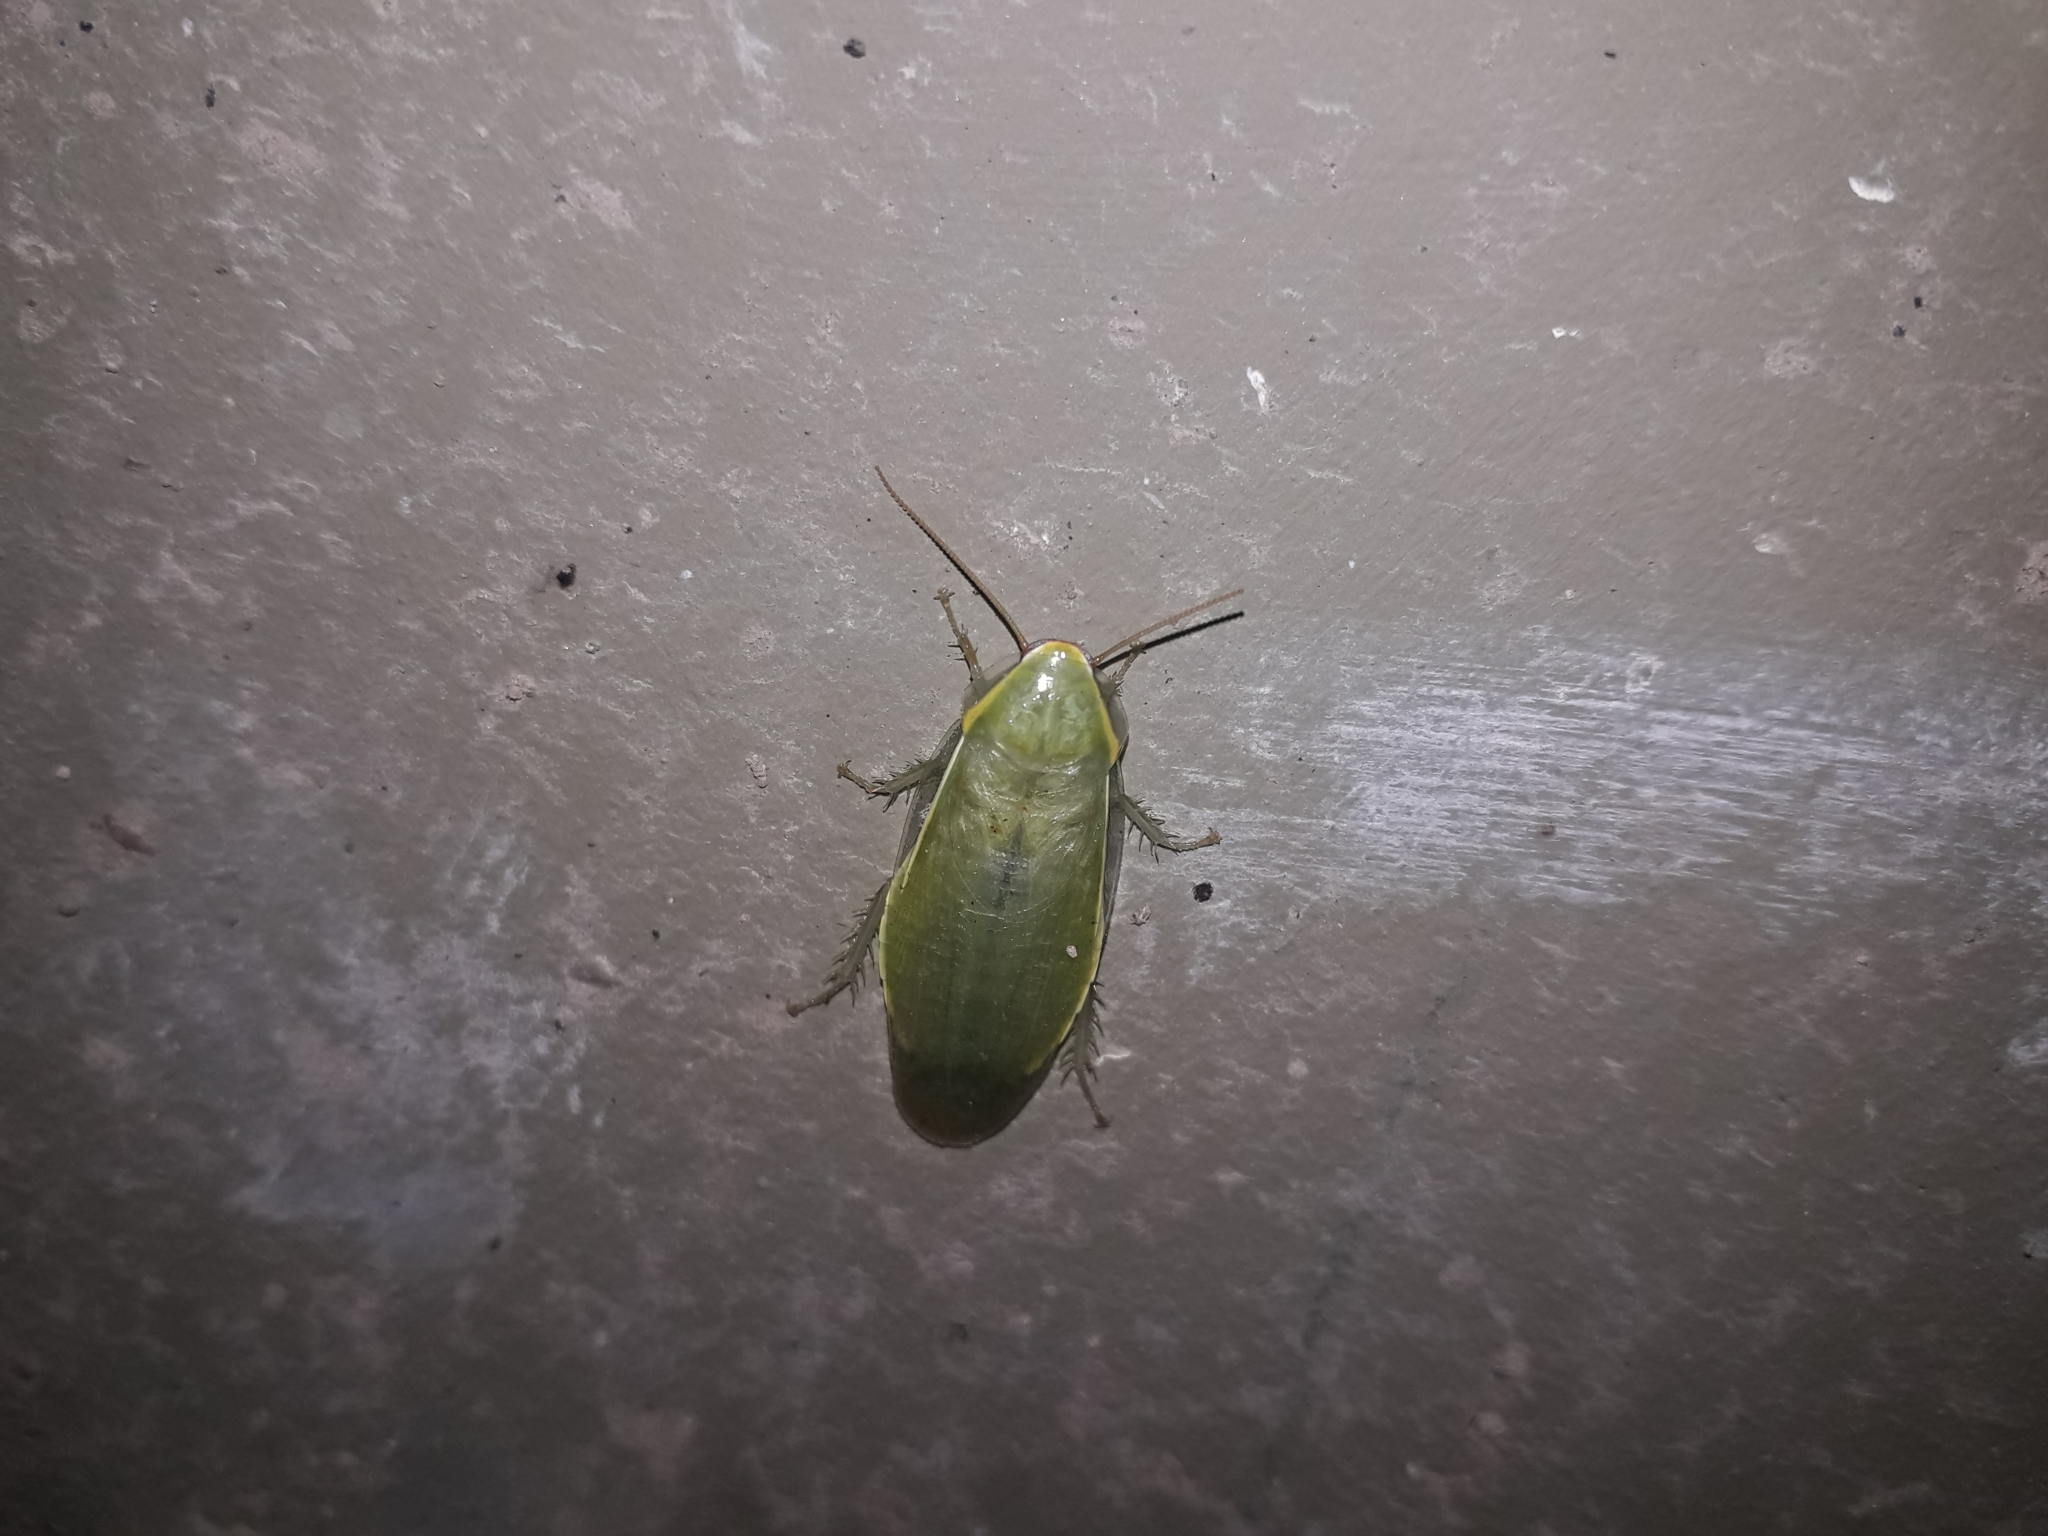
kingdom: Animalia
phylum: Arthropoda
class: Insecta
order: Blattodea
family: Blaberidae
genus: Panchlora
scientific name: Panchlora thalassina
